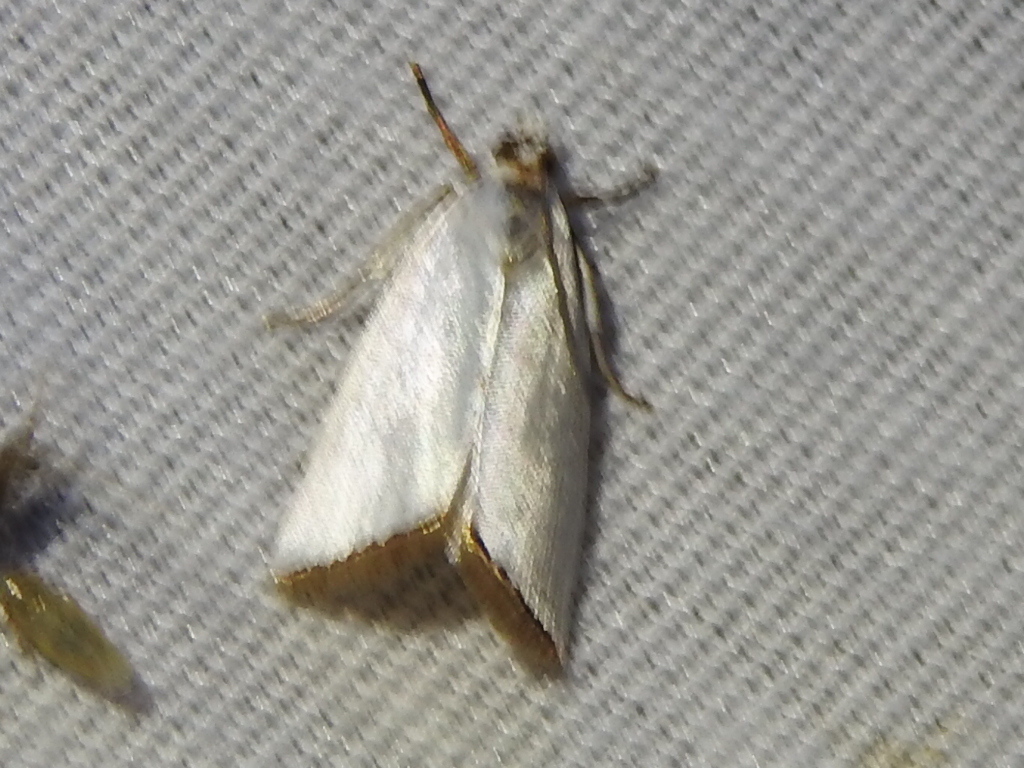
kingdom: Animalia
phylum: Arthropoda
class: Insecta
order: Lepidoptera
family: Crambidae
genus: Argyria
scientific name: Argyria nivalis
